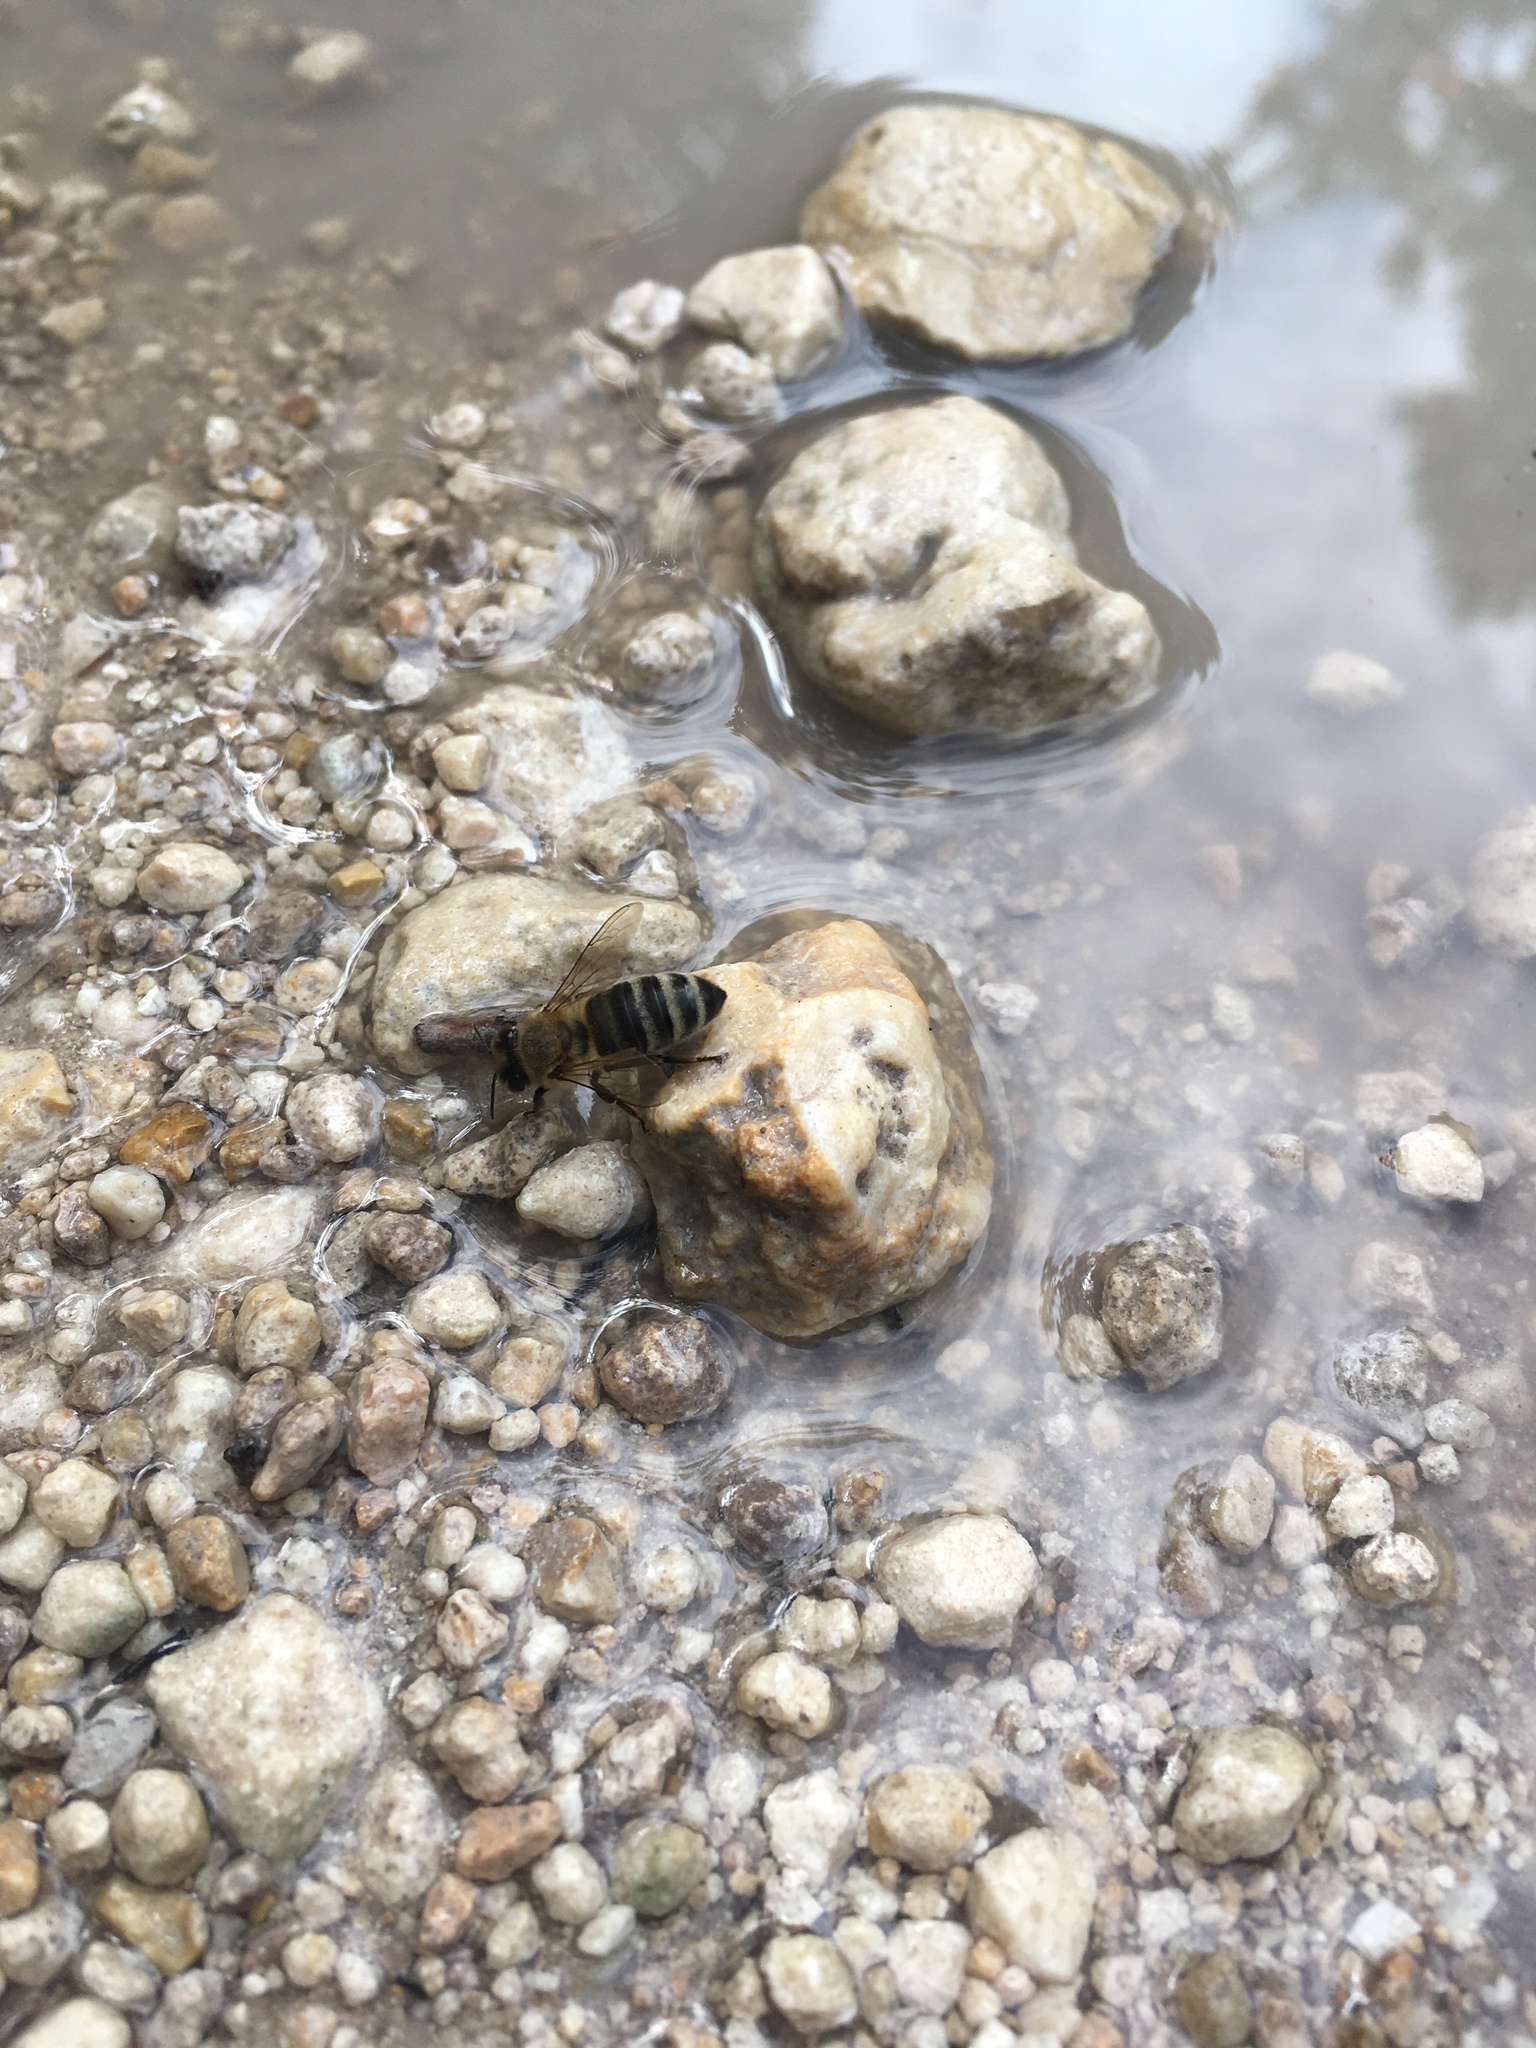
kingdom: Animalia
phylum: Arthropoda
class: Insecta
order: Hymenoptera
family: Apidae
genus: Apis
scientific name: Apis mellifera
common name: Honey bee
